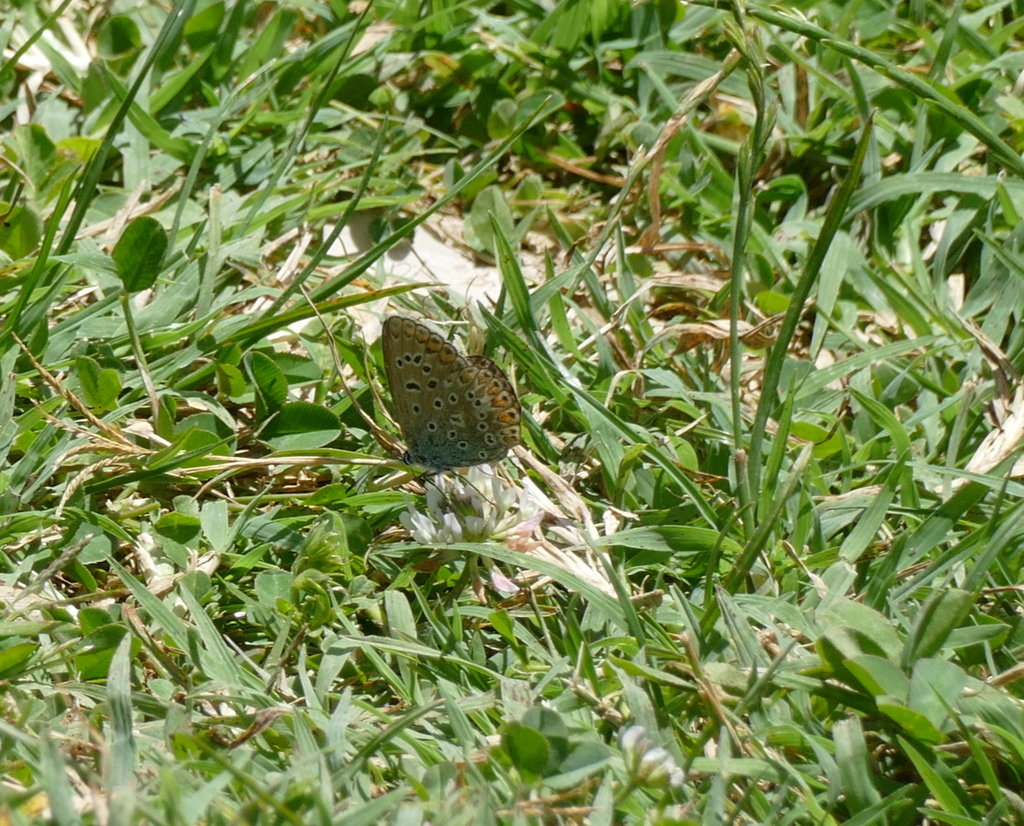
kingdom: Animalia
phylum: Arthropoda
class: Insecta
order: Lepidoptera
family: Lycaenidae
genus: Polyommatus
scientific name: Polyommatus icarus
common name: Common blue
